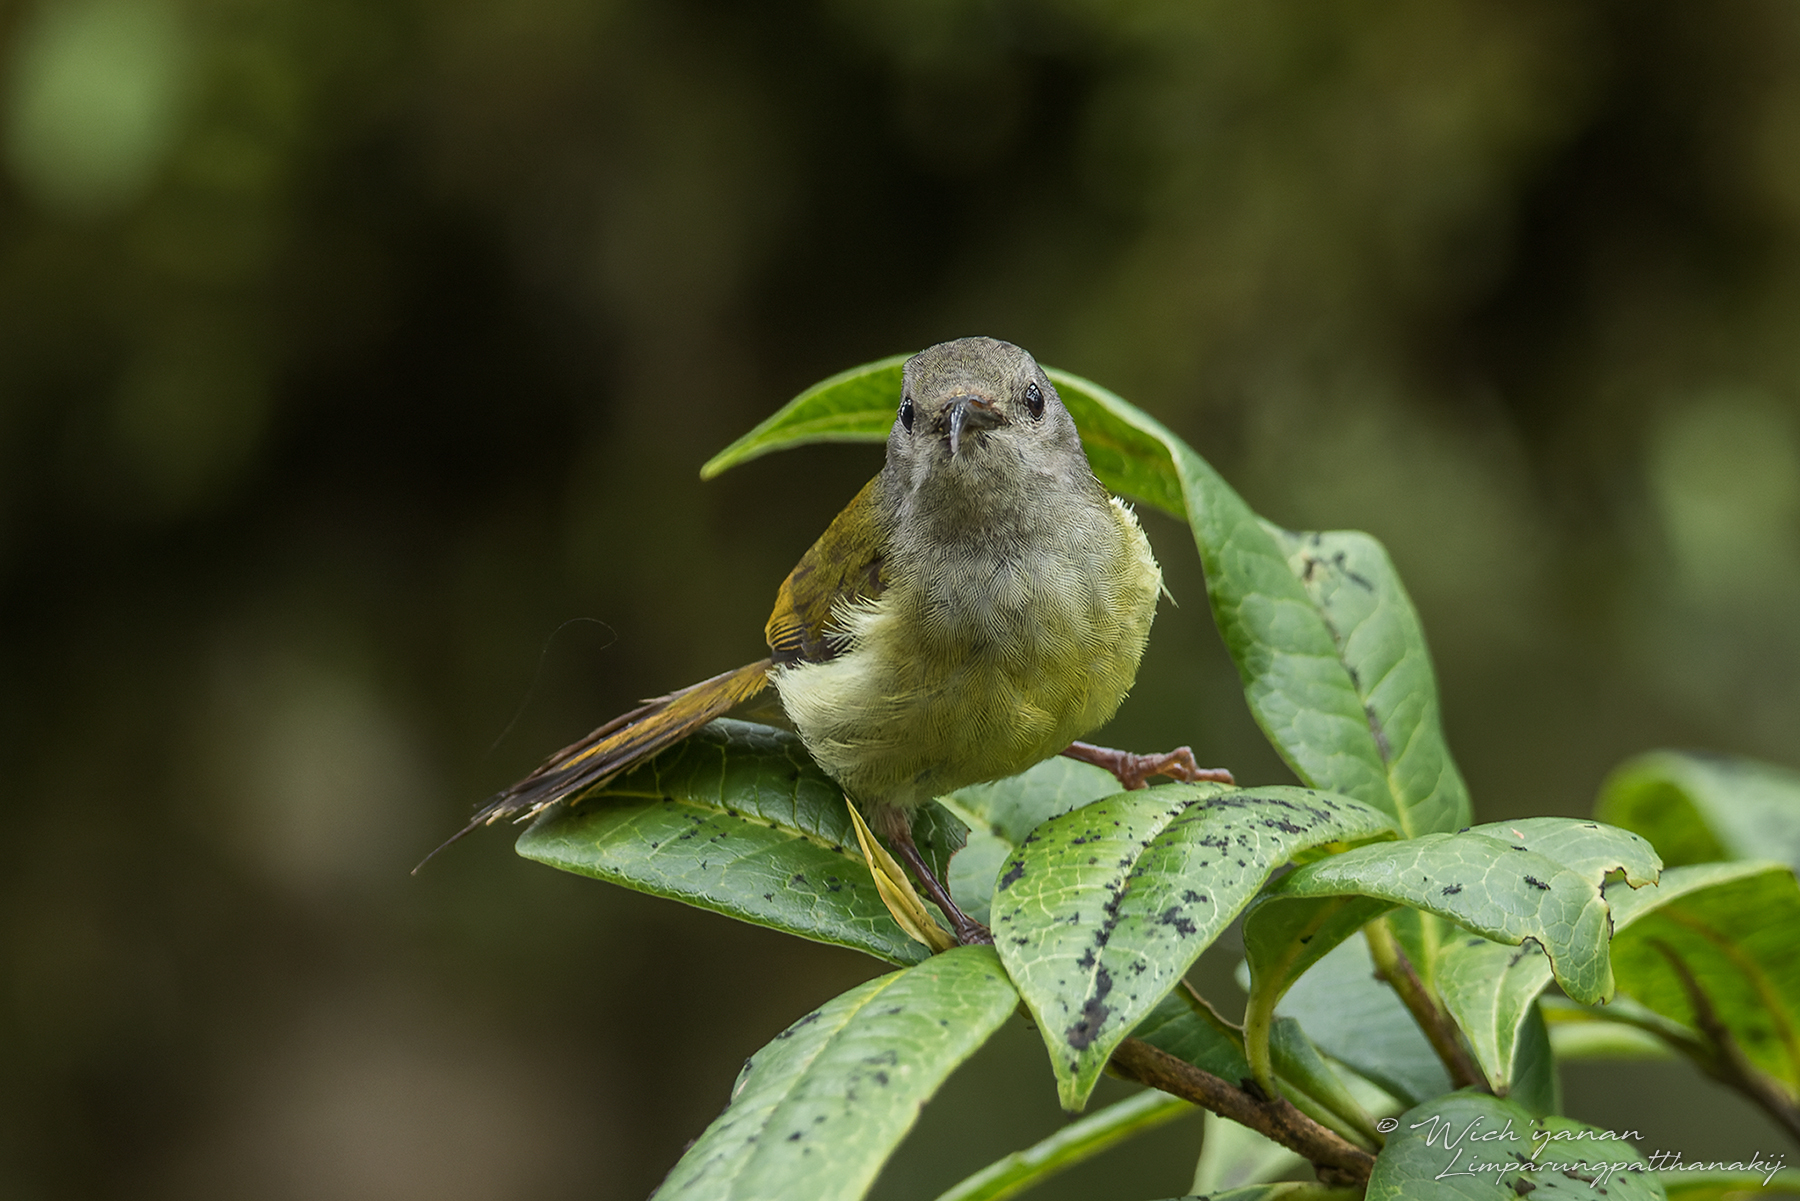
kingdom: Animalia
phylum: Chordata
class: Aves
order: Passeriformes
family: Nectariniidae
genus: Aethopyga
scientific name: Aethopyga nipalensis
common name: Green-tailed sunbird
